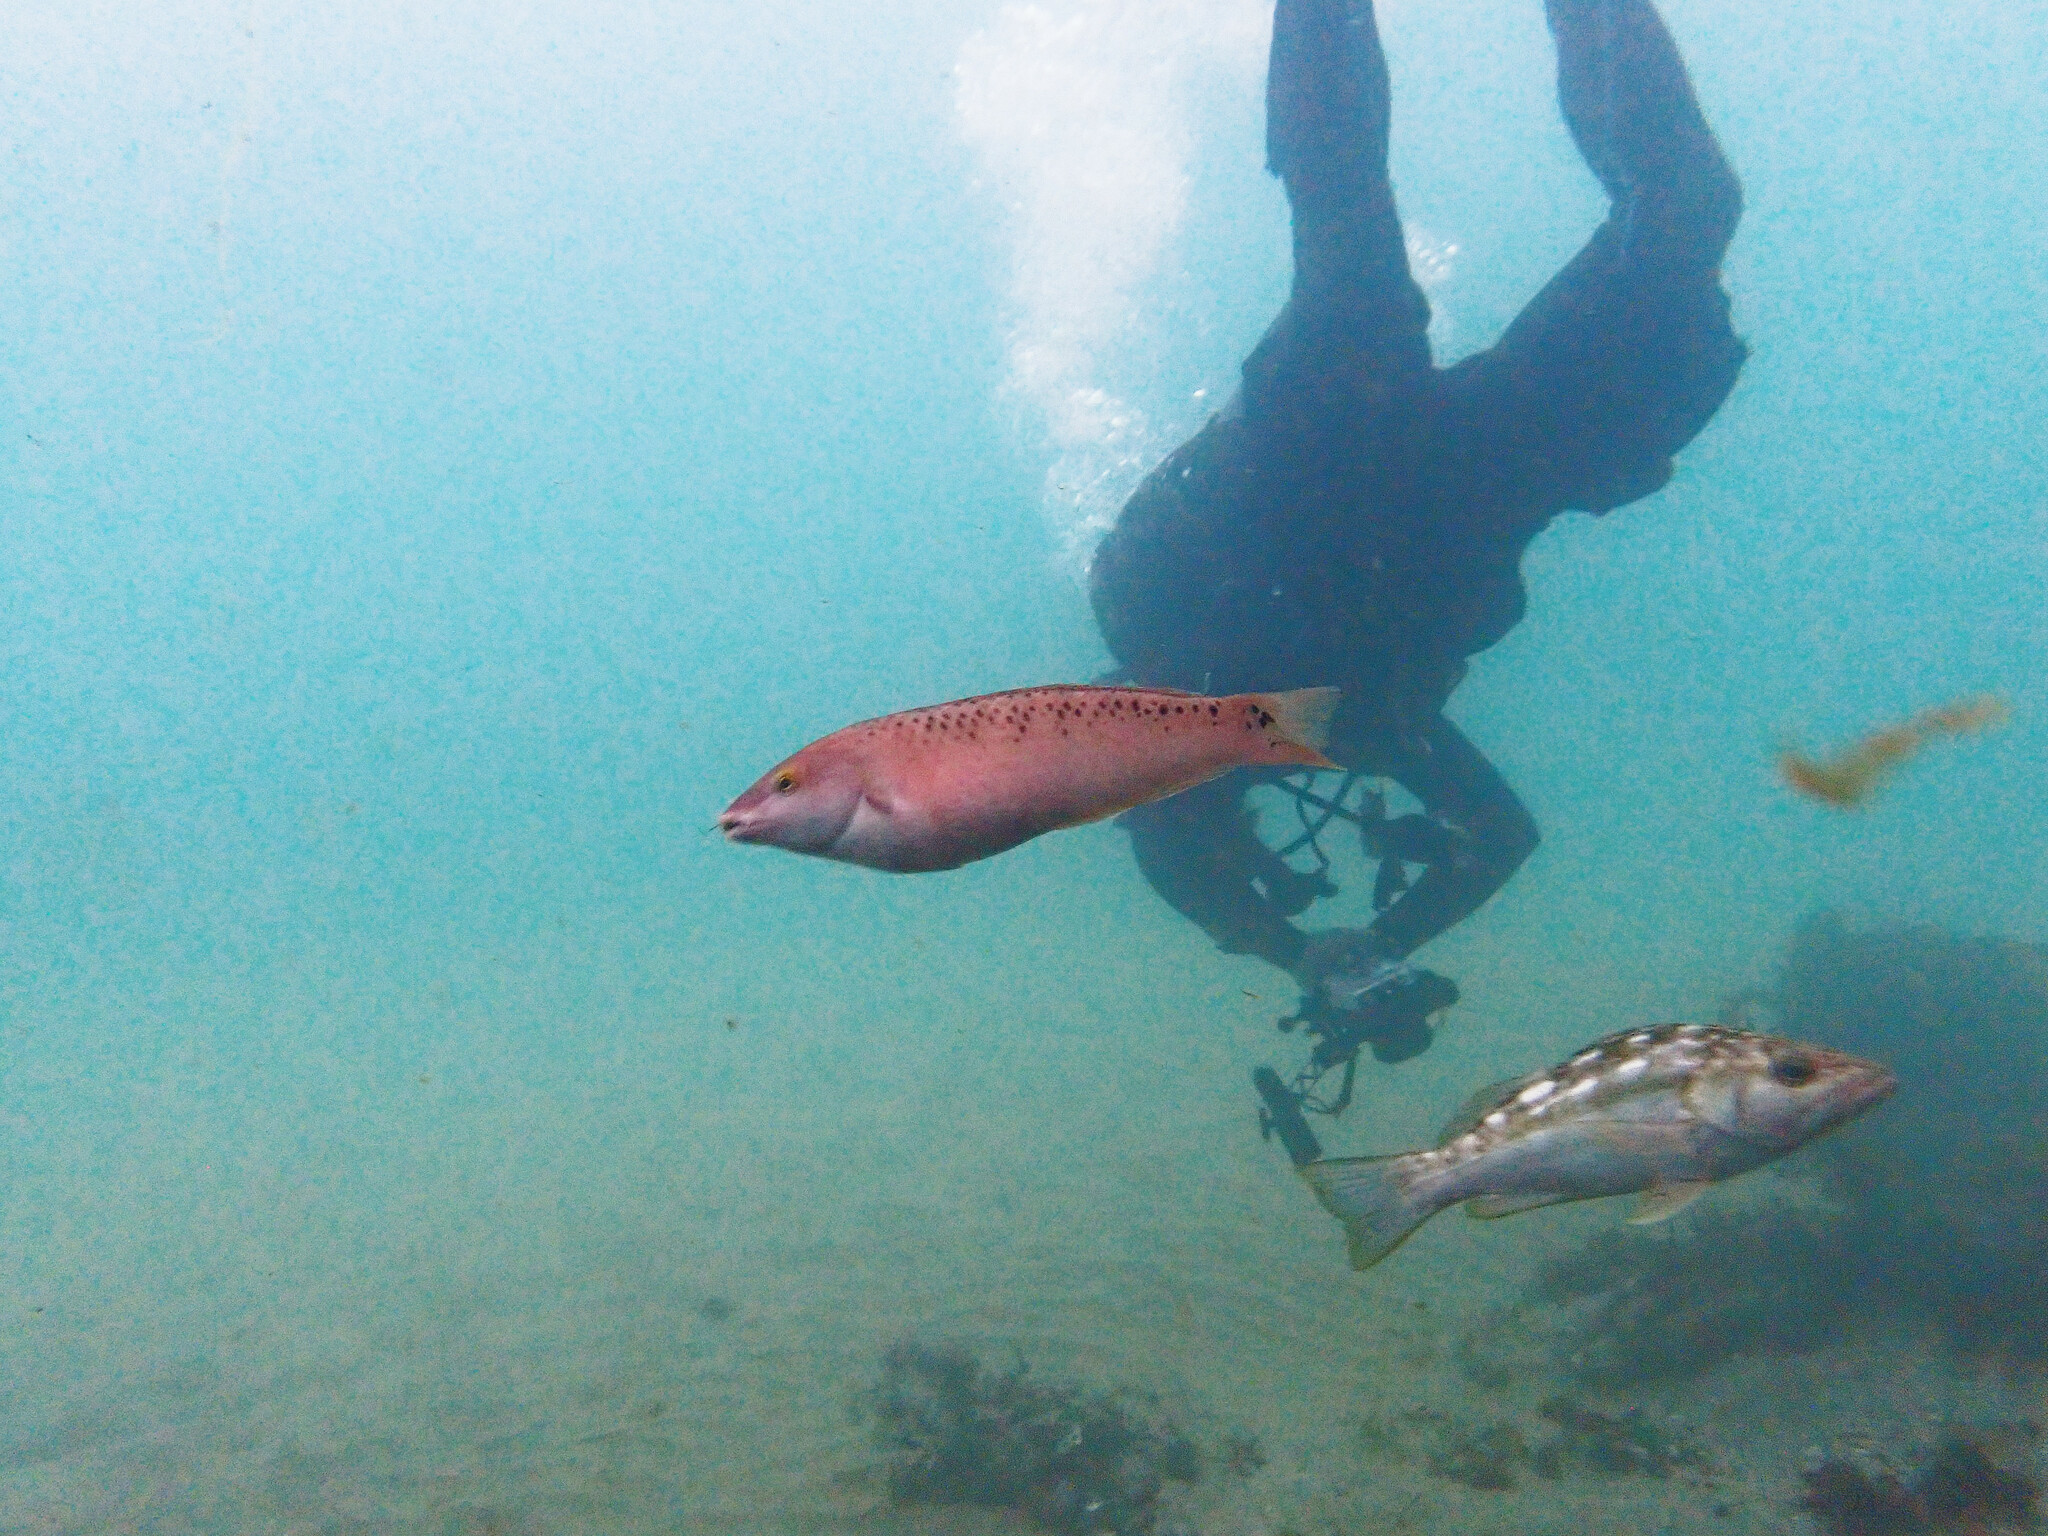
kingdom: Animalia
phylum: Chordata
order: Perciformes
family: Labridae
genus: Halichoeres
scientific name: Halichoeres semicinctus
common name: Rock wrasse
